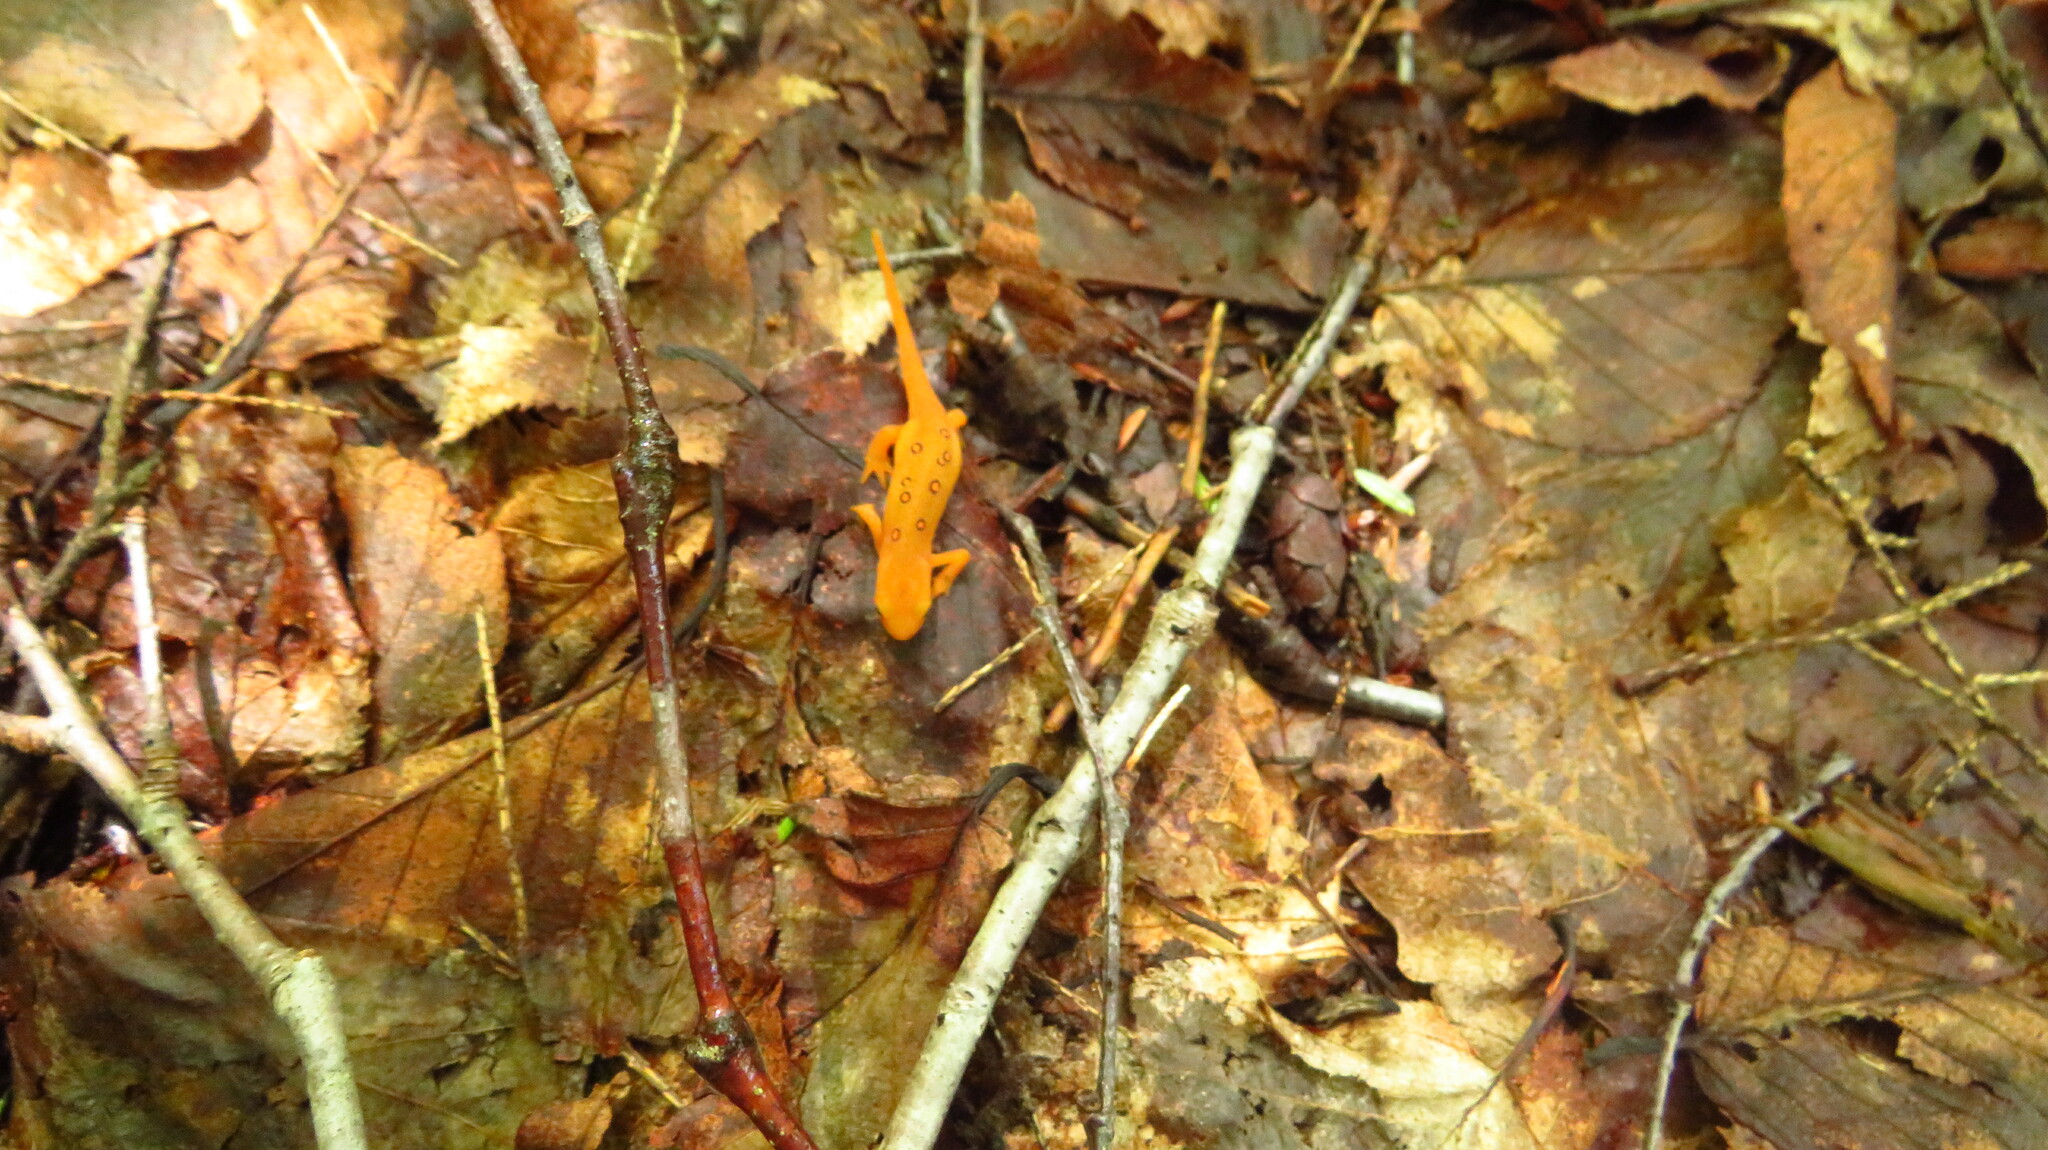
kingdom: Animalia
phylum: Chordata
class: Amphibia
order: Caudata
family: Salamandridae
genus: Notophthalmus
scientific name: Notophthalmus viridescens
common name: Eastern newt
